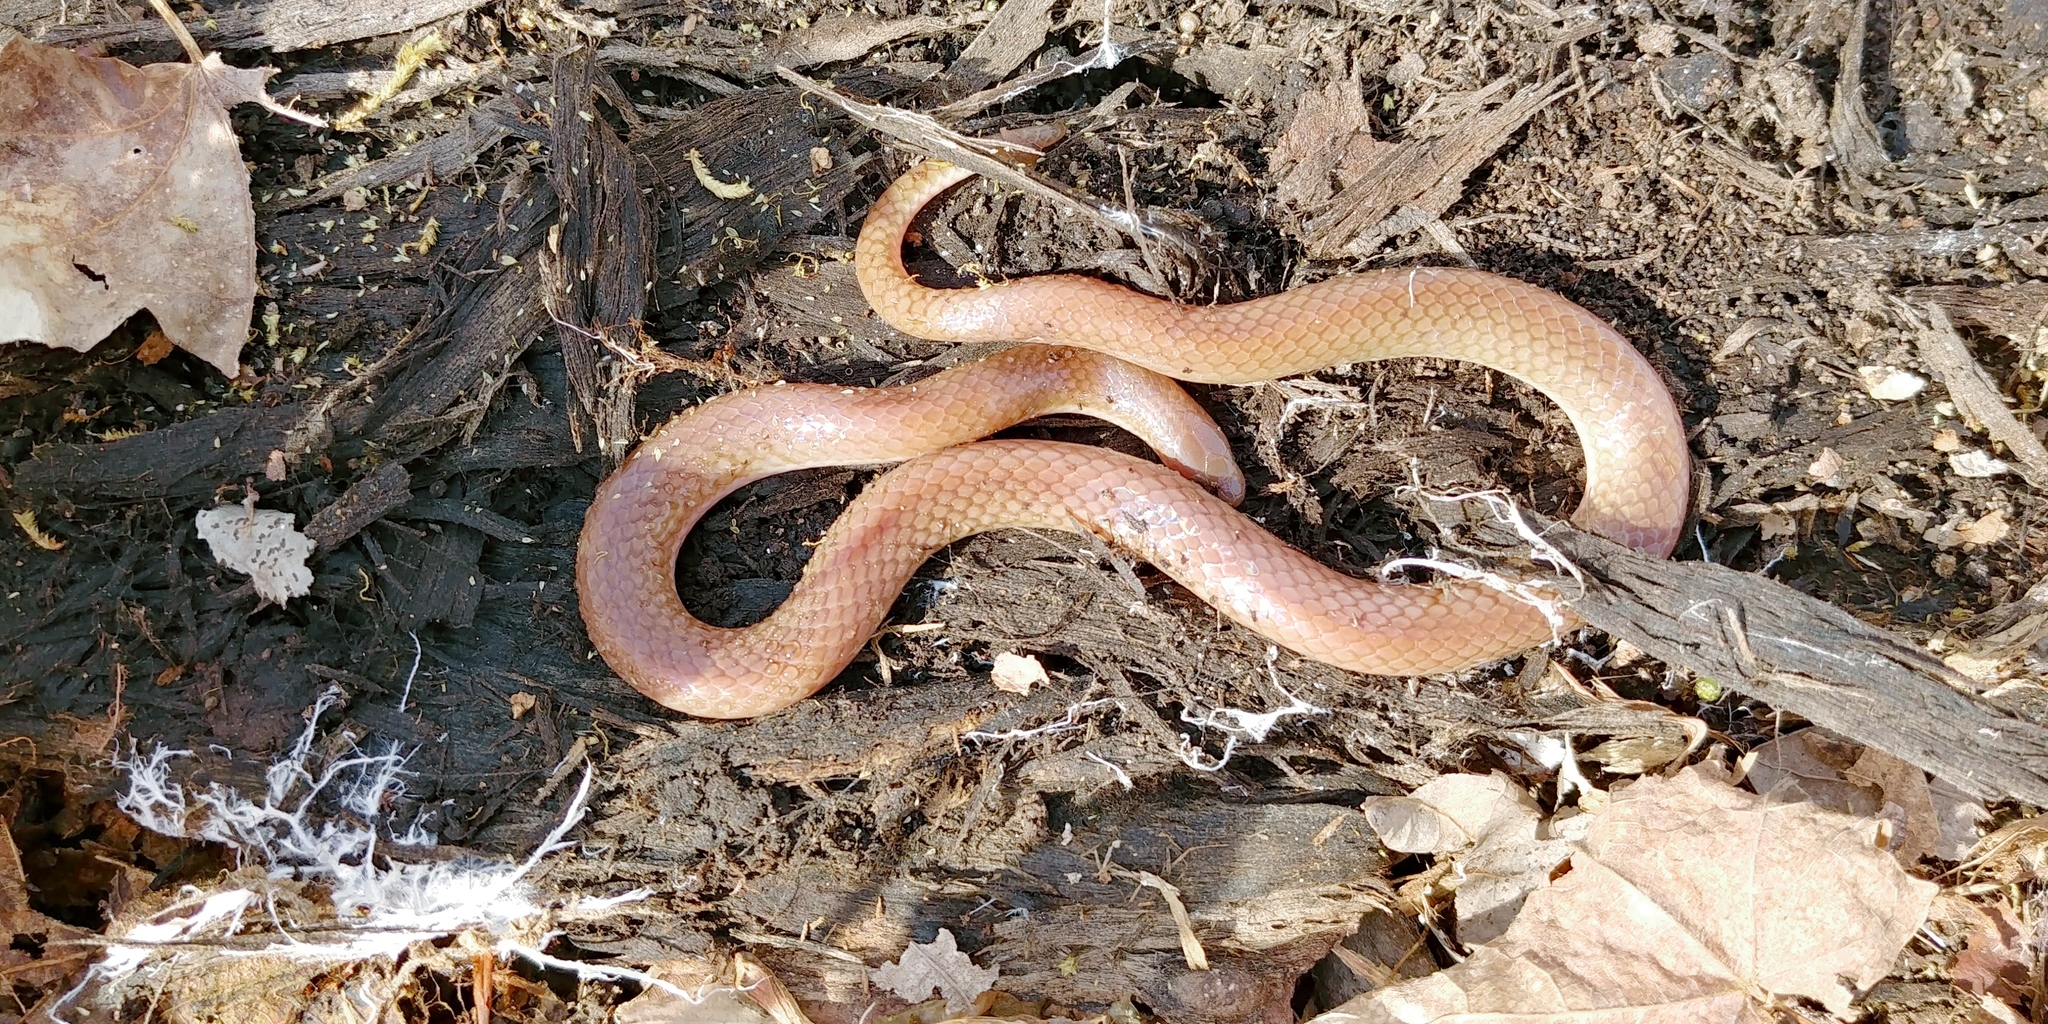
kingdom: Animalia
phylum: Chordata
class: Squamata
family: Colubridae
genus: Carphophis
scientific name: Carphophis amoenus
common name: Eastern worm snake
